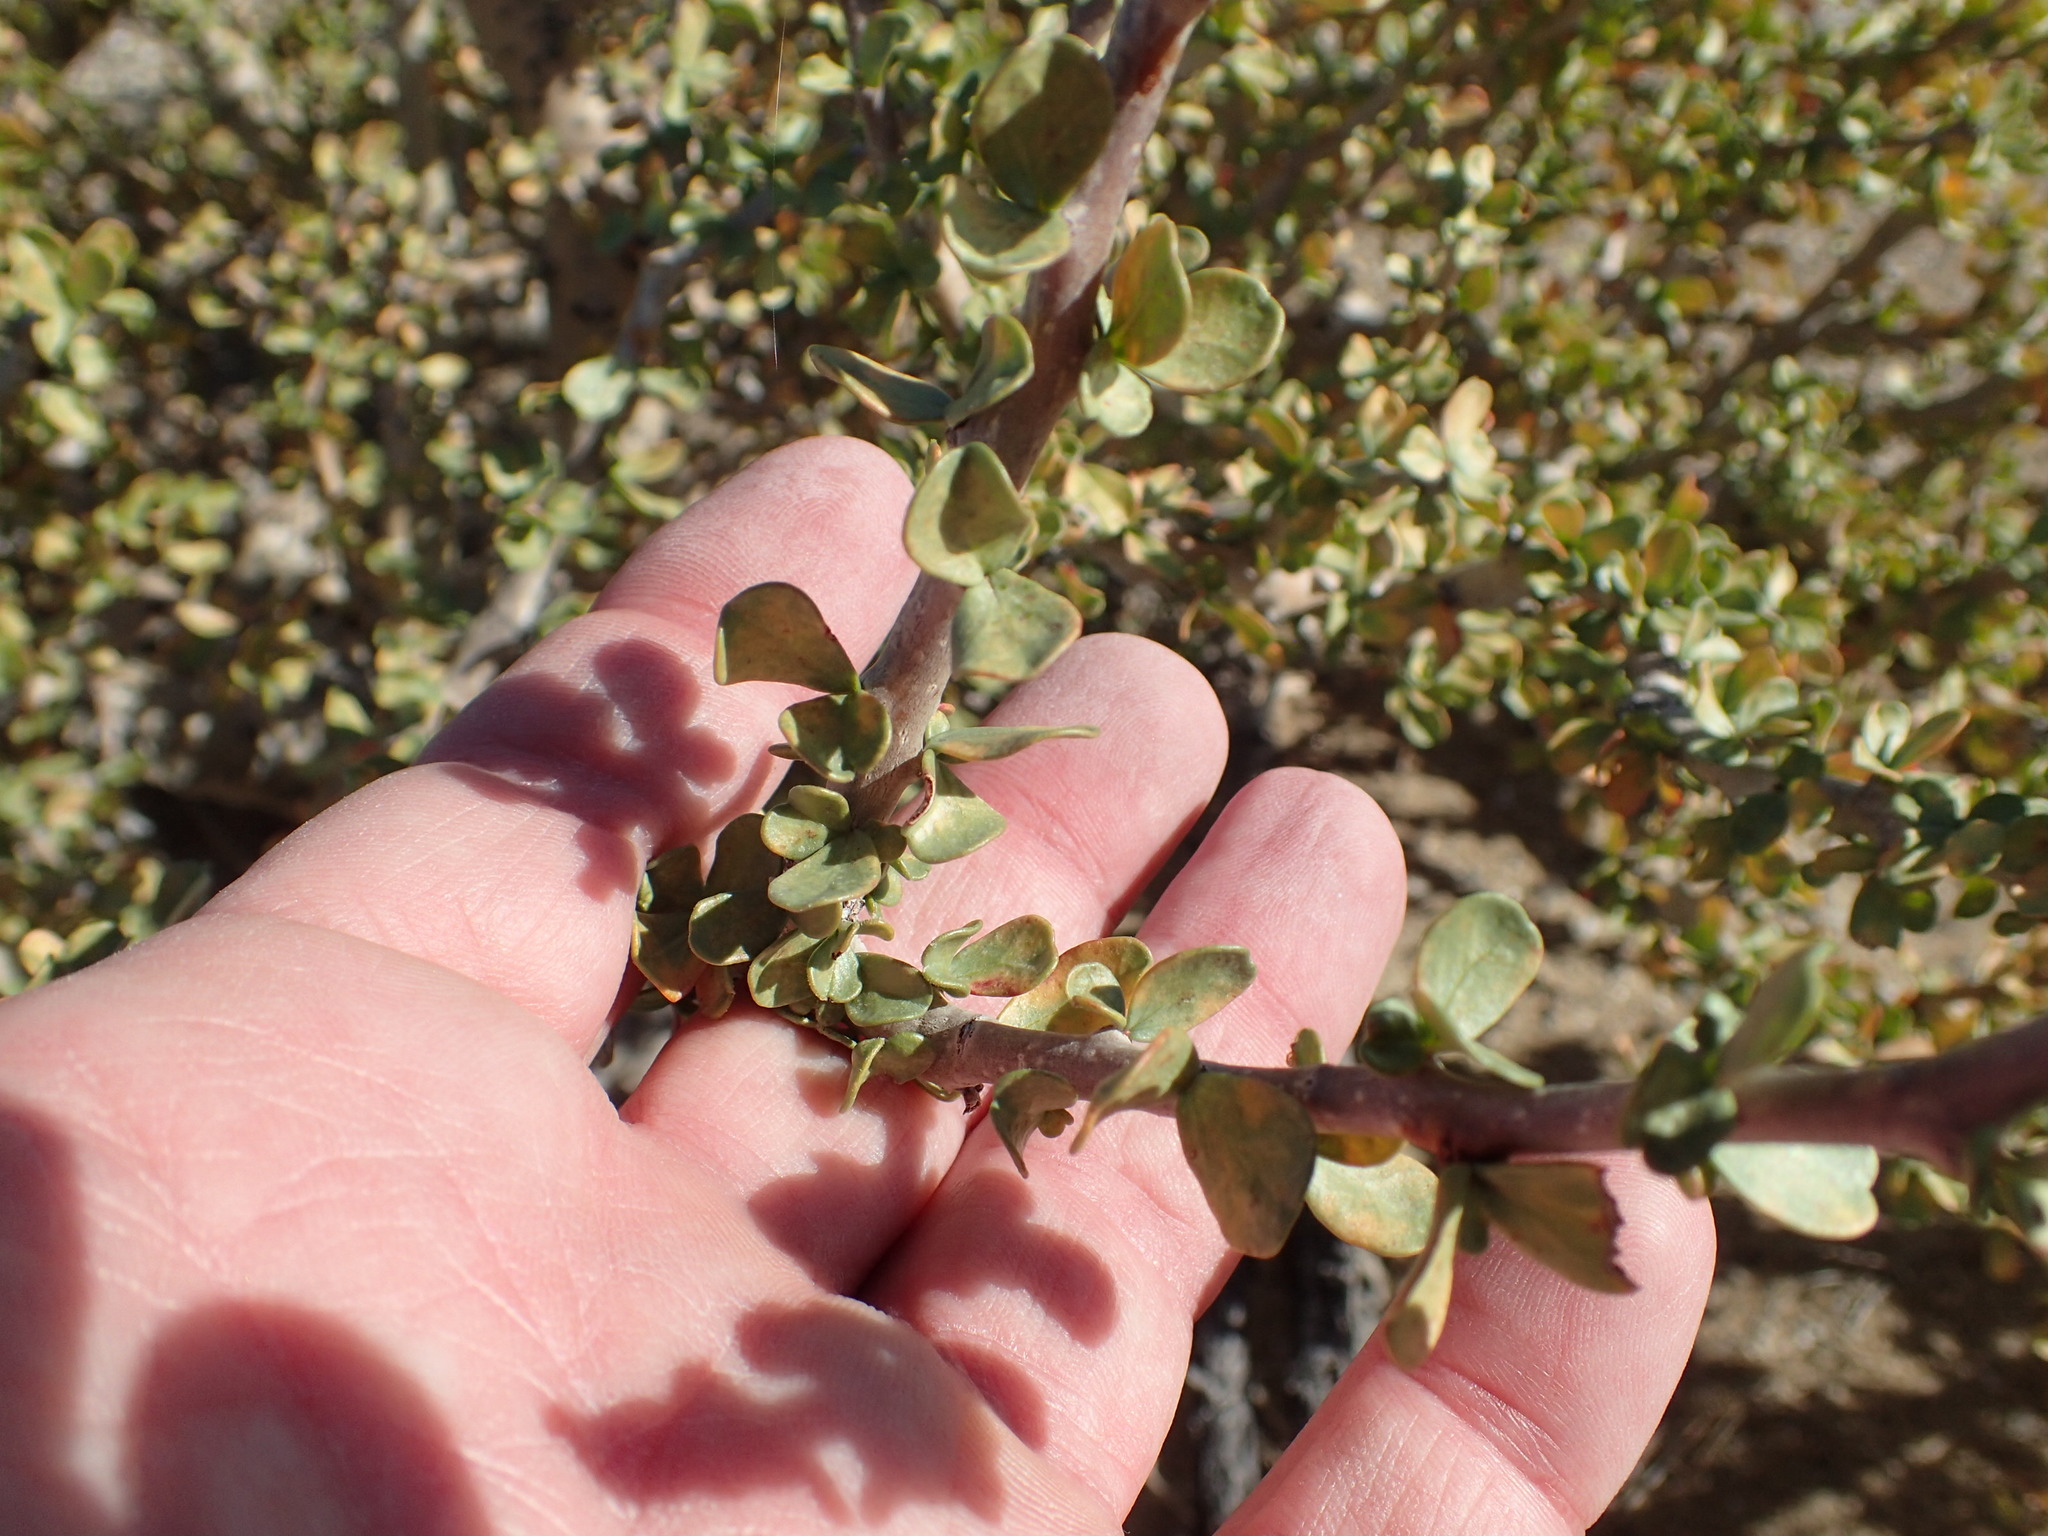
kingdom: Plantae
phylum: Tracheophyta
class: Magnoliopsida
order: Malpighiales
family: Euphorbiaceae
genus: Jatropha
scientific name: Jatropha cuneata
